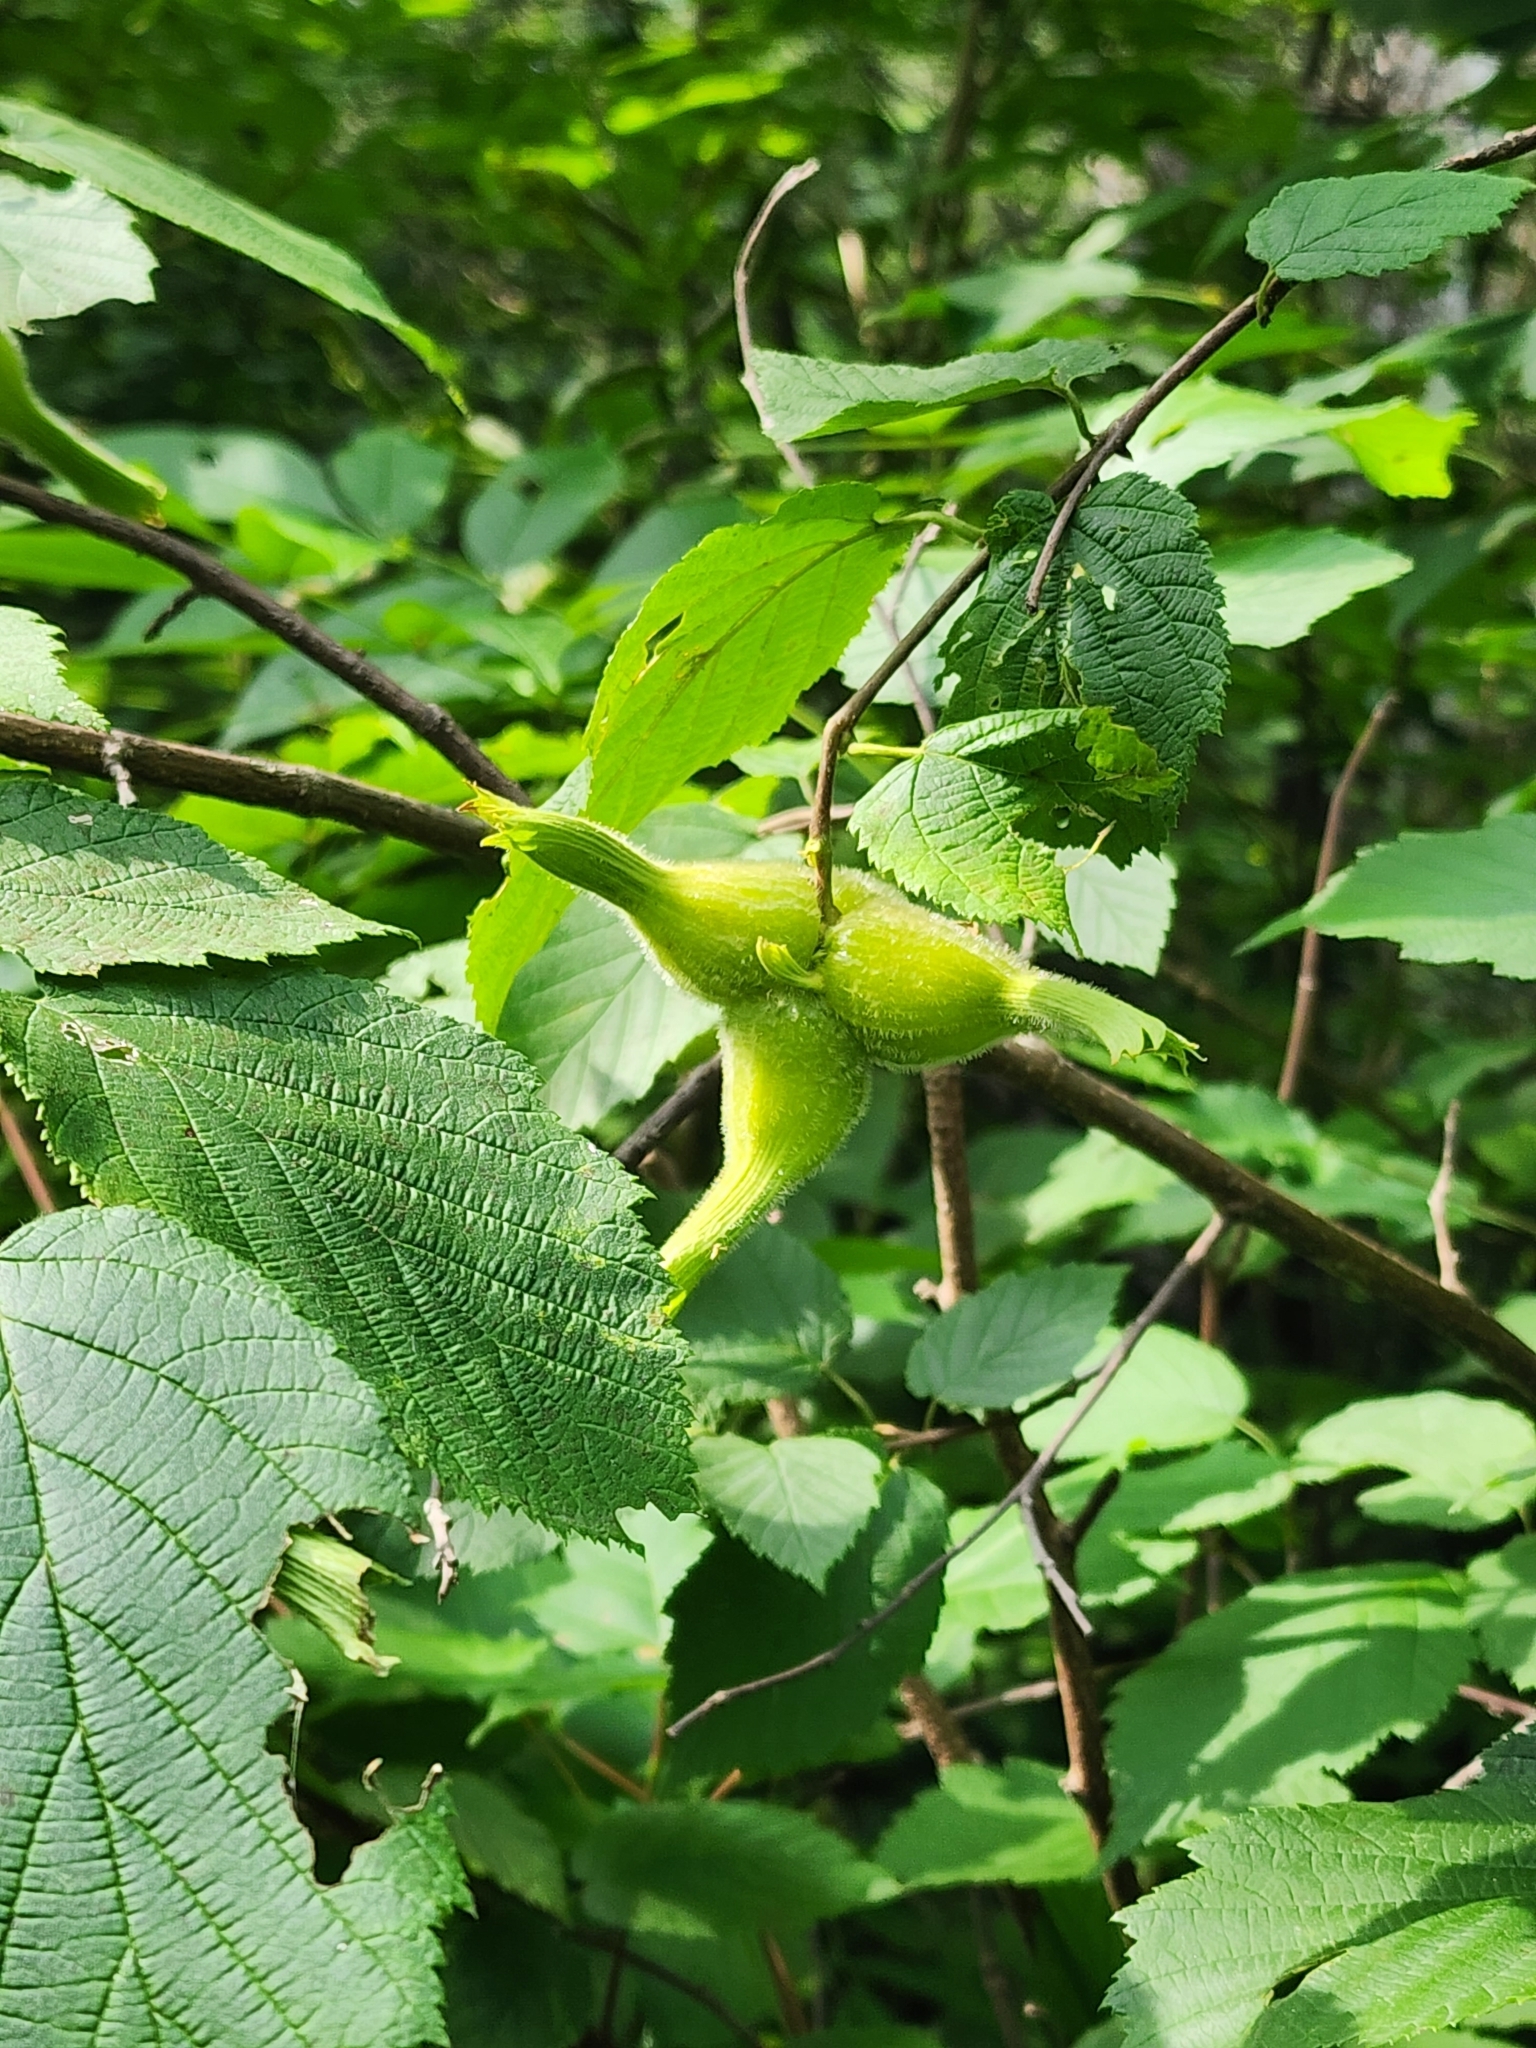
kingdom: Plantae
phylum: Tracheophyta
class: Magnoliopsida
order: Fagales
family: Betulaceae
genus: Corylus
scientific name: Corylus cornuta
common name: Beaked hazel
